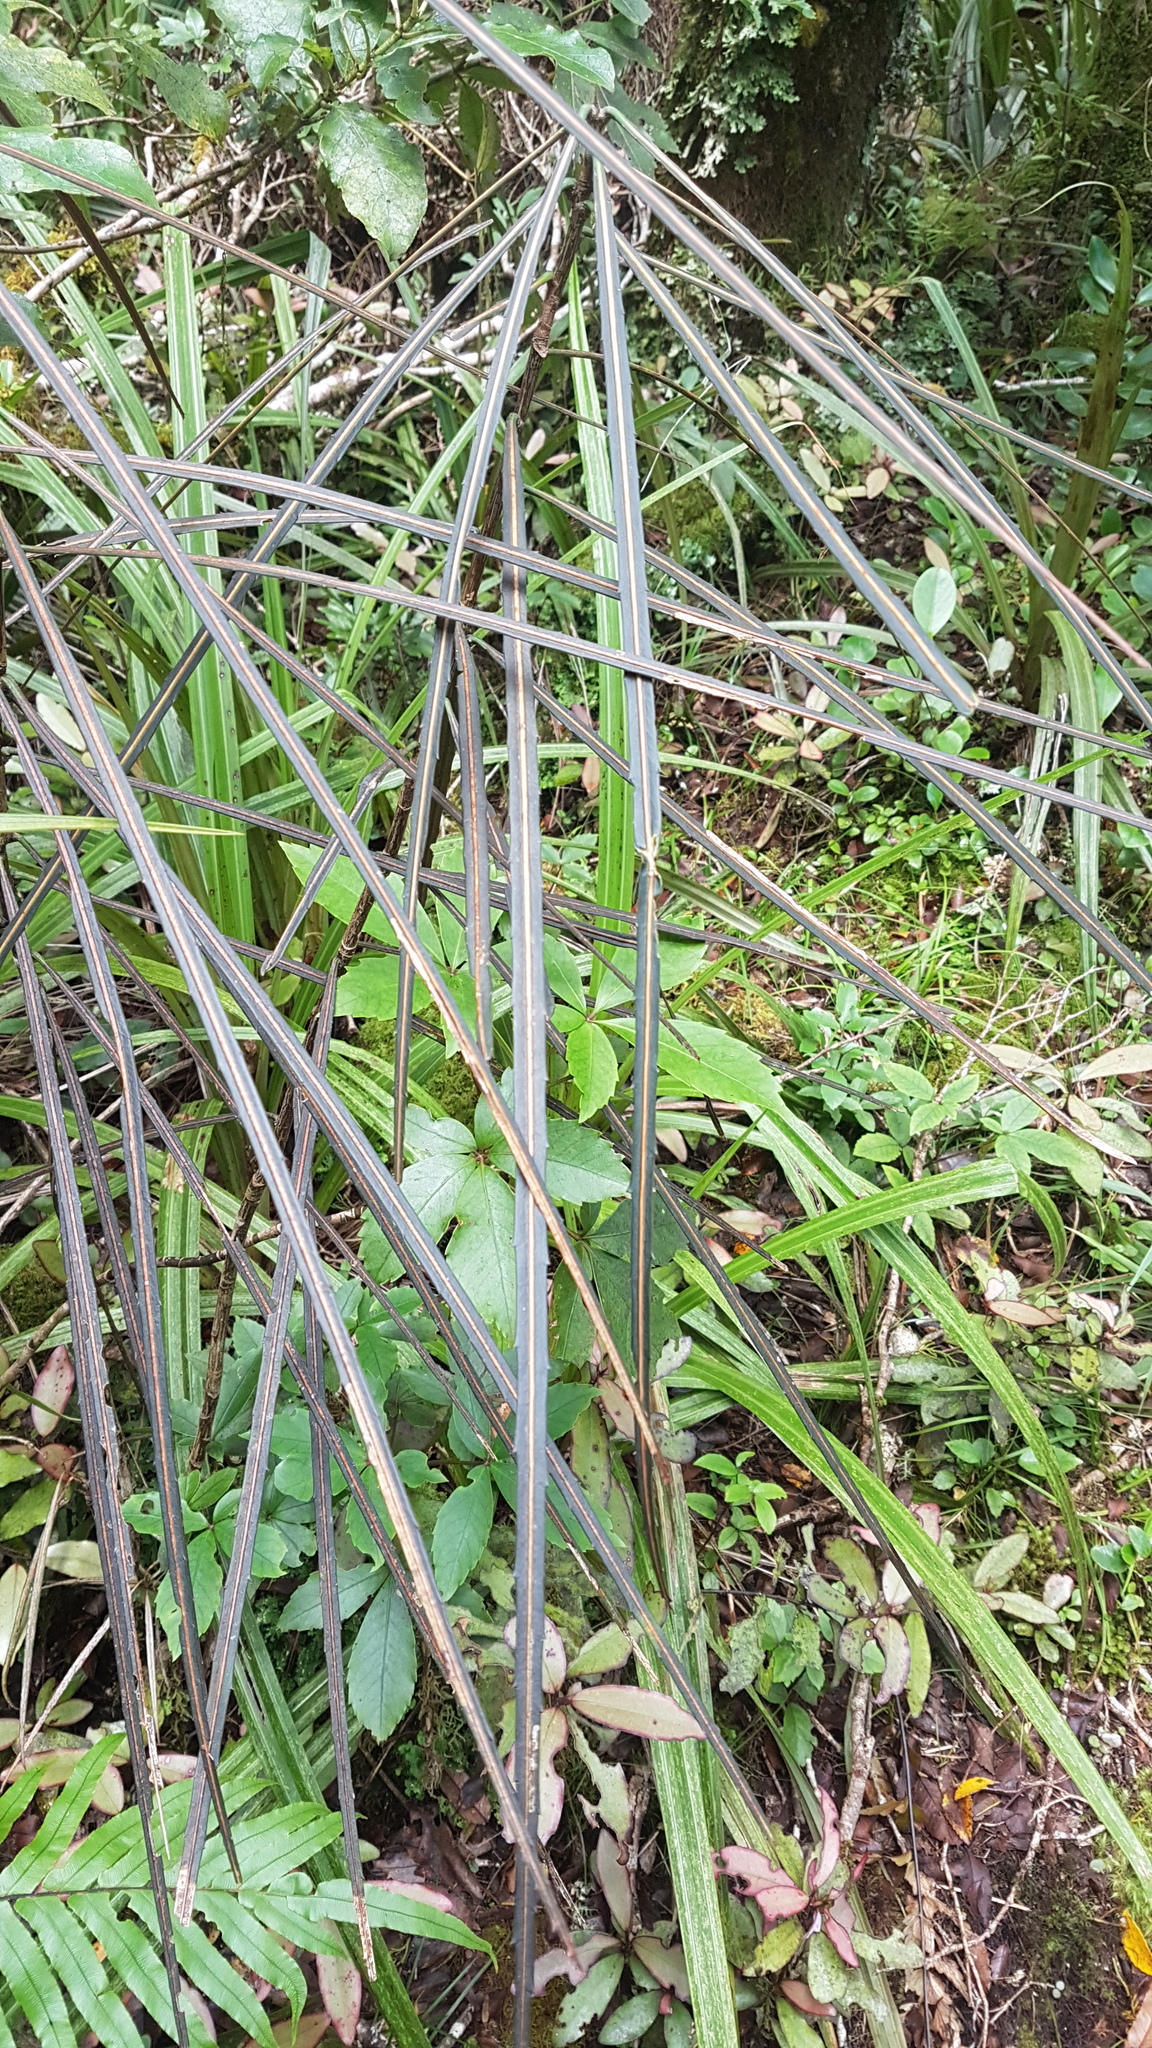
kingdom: Plantae
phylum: Tracheophyta
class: Magnoliopsida
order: Apiales
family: Araliaceae
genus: Pseudopanax
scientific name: Pseudopanax crassifolius
